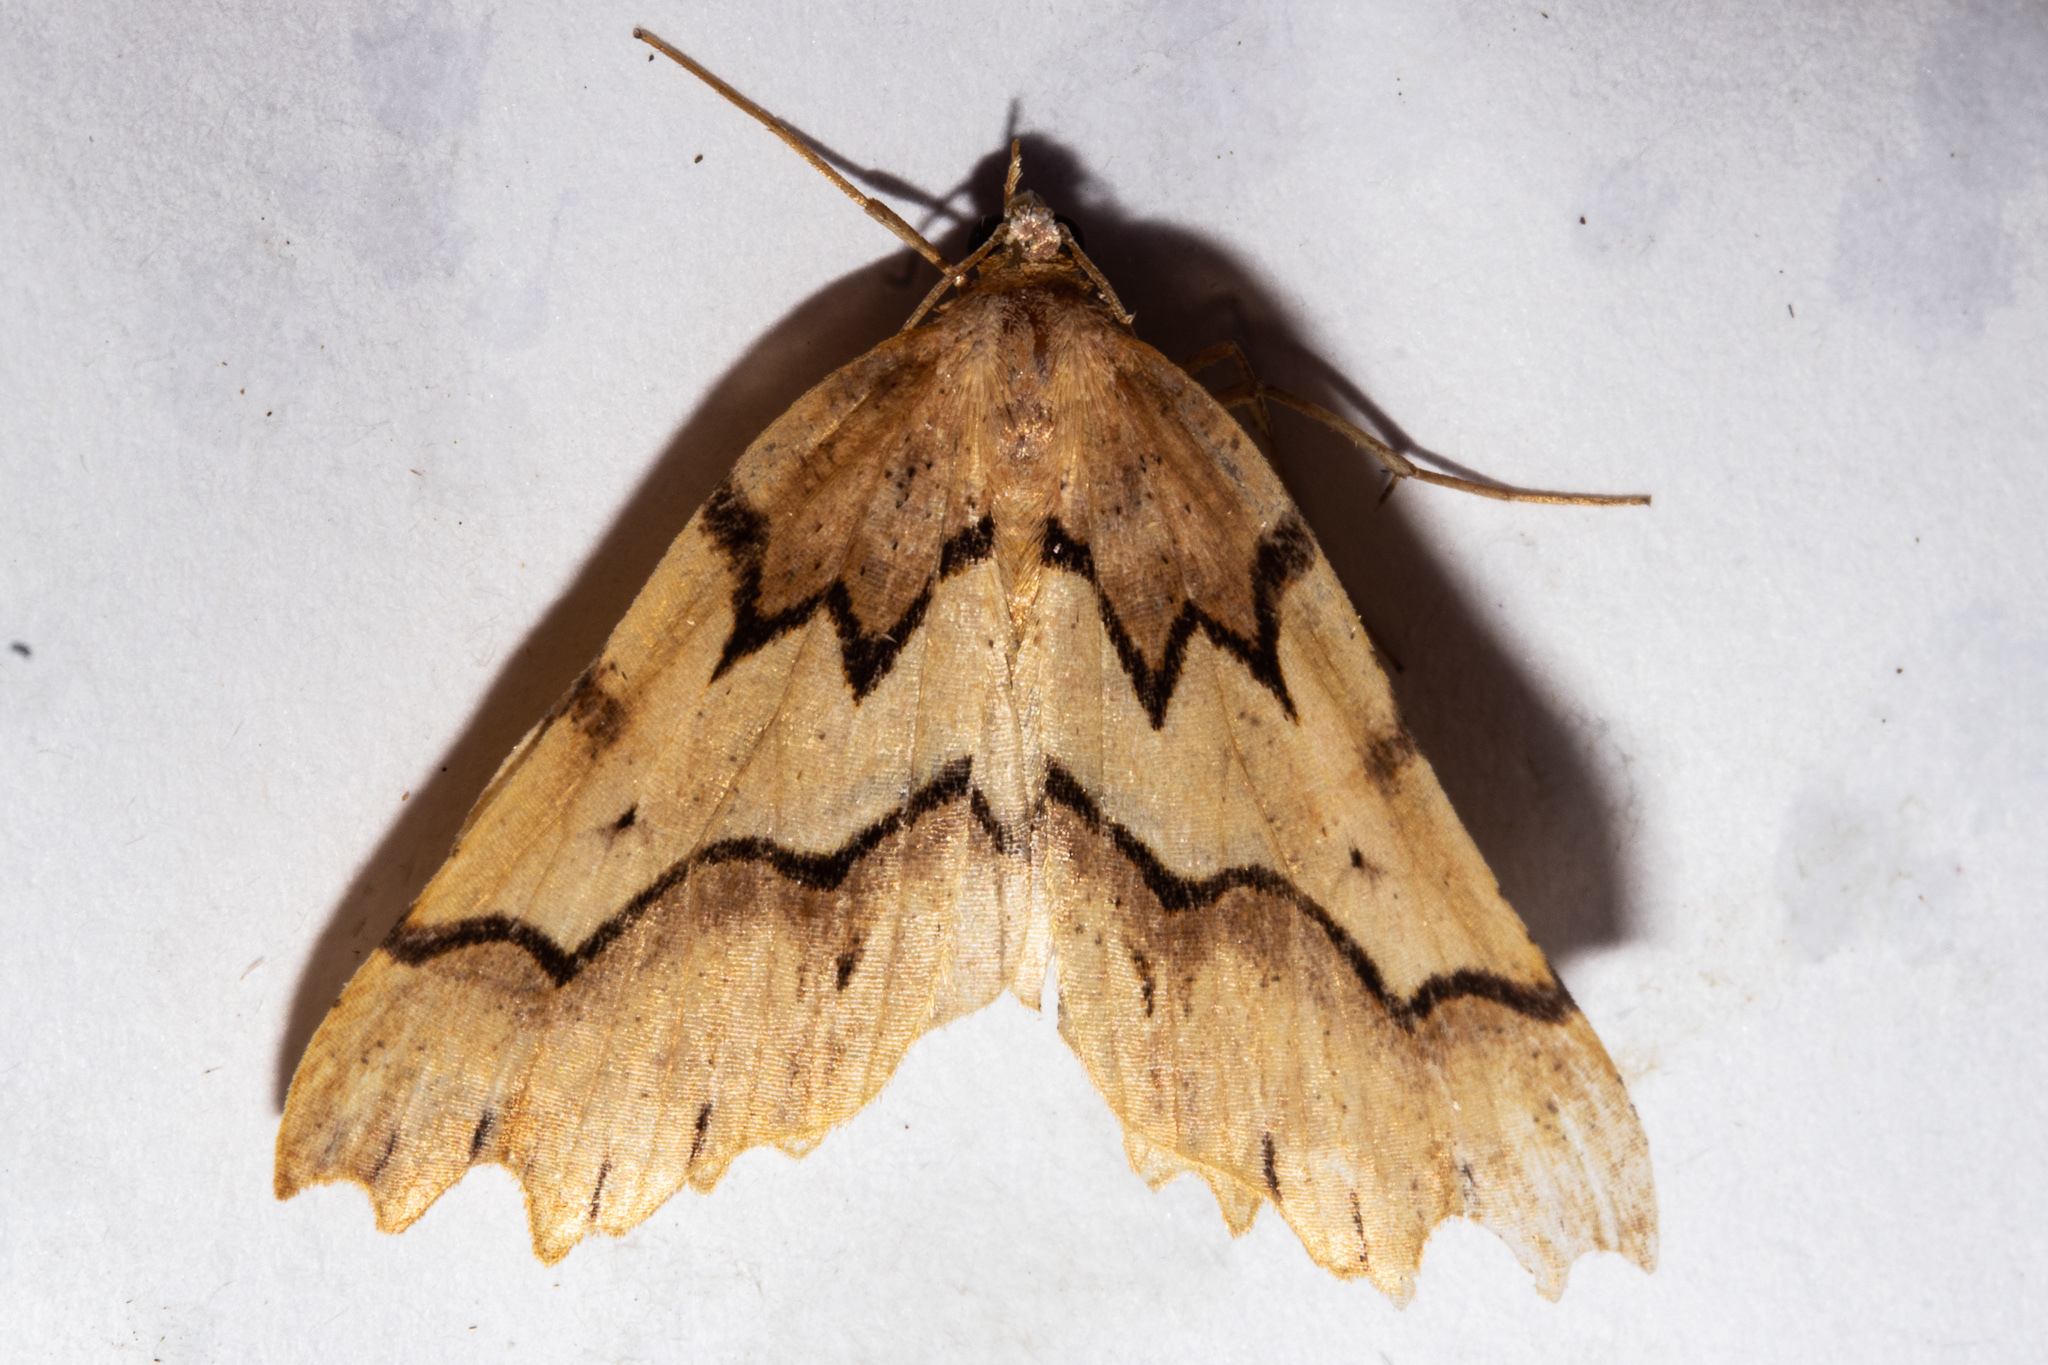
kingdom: Animalia
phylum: Arthropoda
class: Insecta
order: Lepidoptera
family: Geometridae
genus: Ischalis
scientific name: Ischalis fortinata
